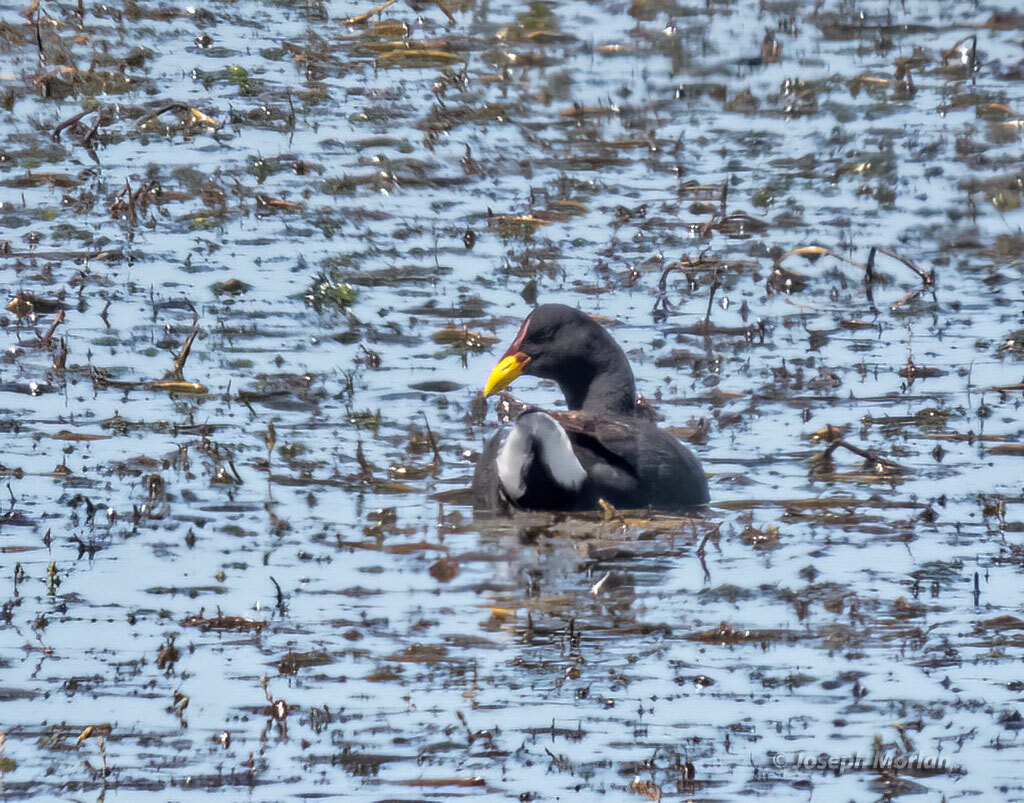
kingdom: Animalia
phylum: Chordata
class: Aves
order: Gruiformes
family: Rallidae
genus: Fulica
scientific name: Fulica rufifrons
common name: Red-fronted coot
